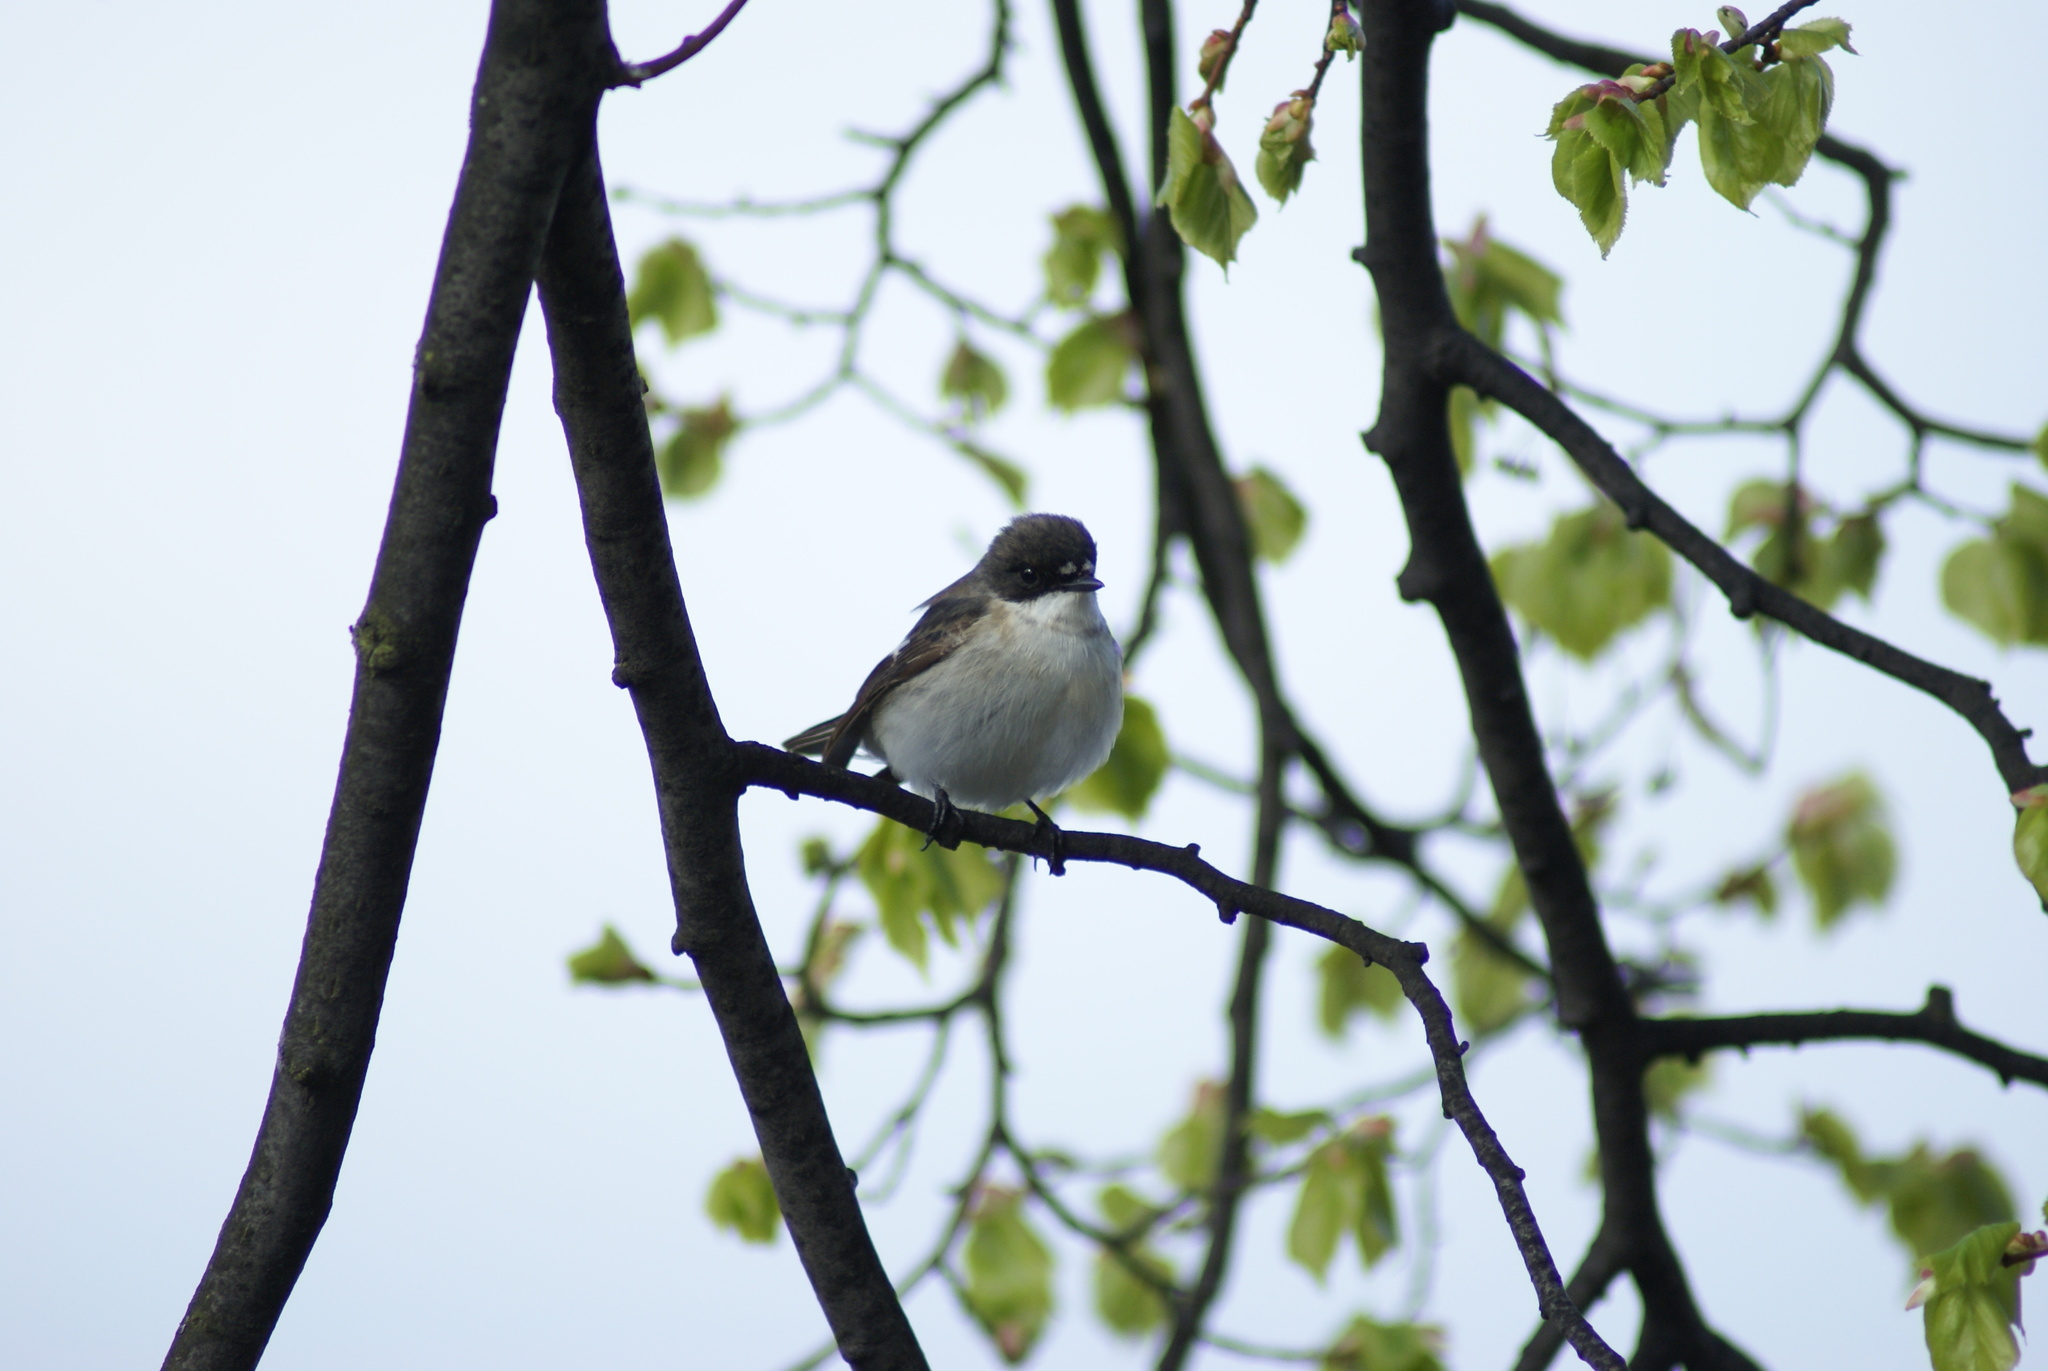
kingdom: Animalia
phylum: Chordata
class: Aves
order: Passeriformes
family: Muscicapidae
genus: Ficedula
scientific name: Ficedula hypoleuca
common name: European pied flycatcher
